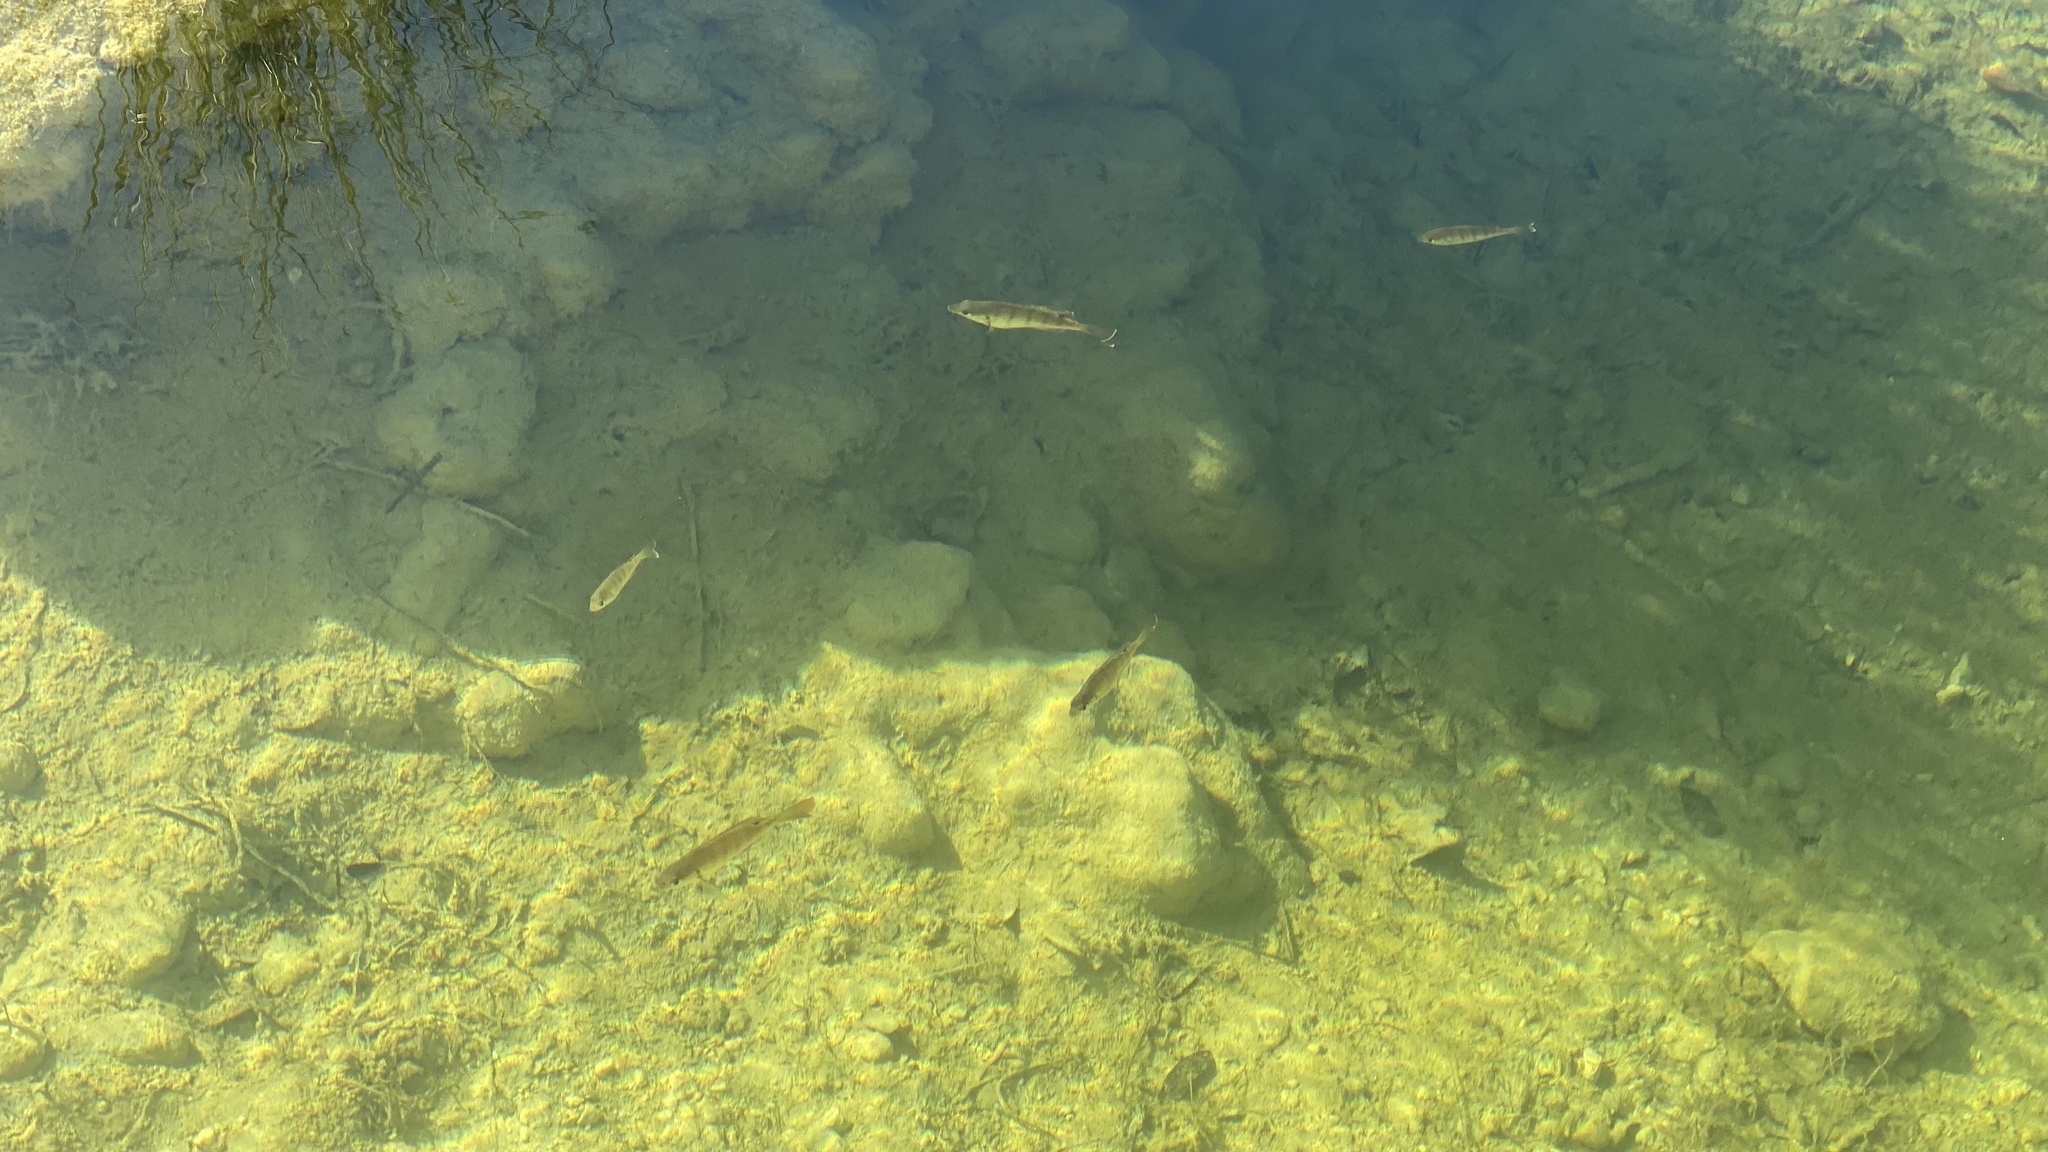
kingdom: Animalia
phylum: Chordata
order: Perciformes
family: Centrarchidae
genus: Lepomis
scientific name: Lepomis macrochirus
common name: Bluegill
